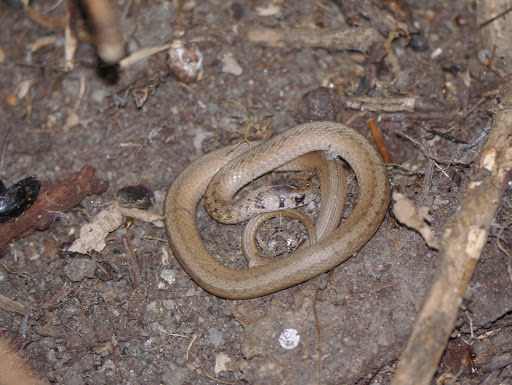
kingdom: Animalia
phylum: Chordata
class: Squamata
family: Colubridae
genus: Storeria
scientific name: Storeria dekayi
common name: (dekay’s) brown snake
